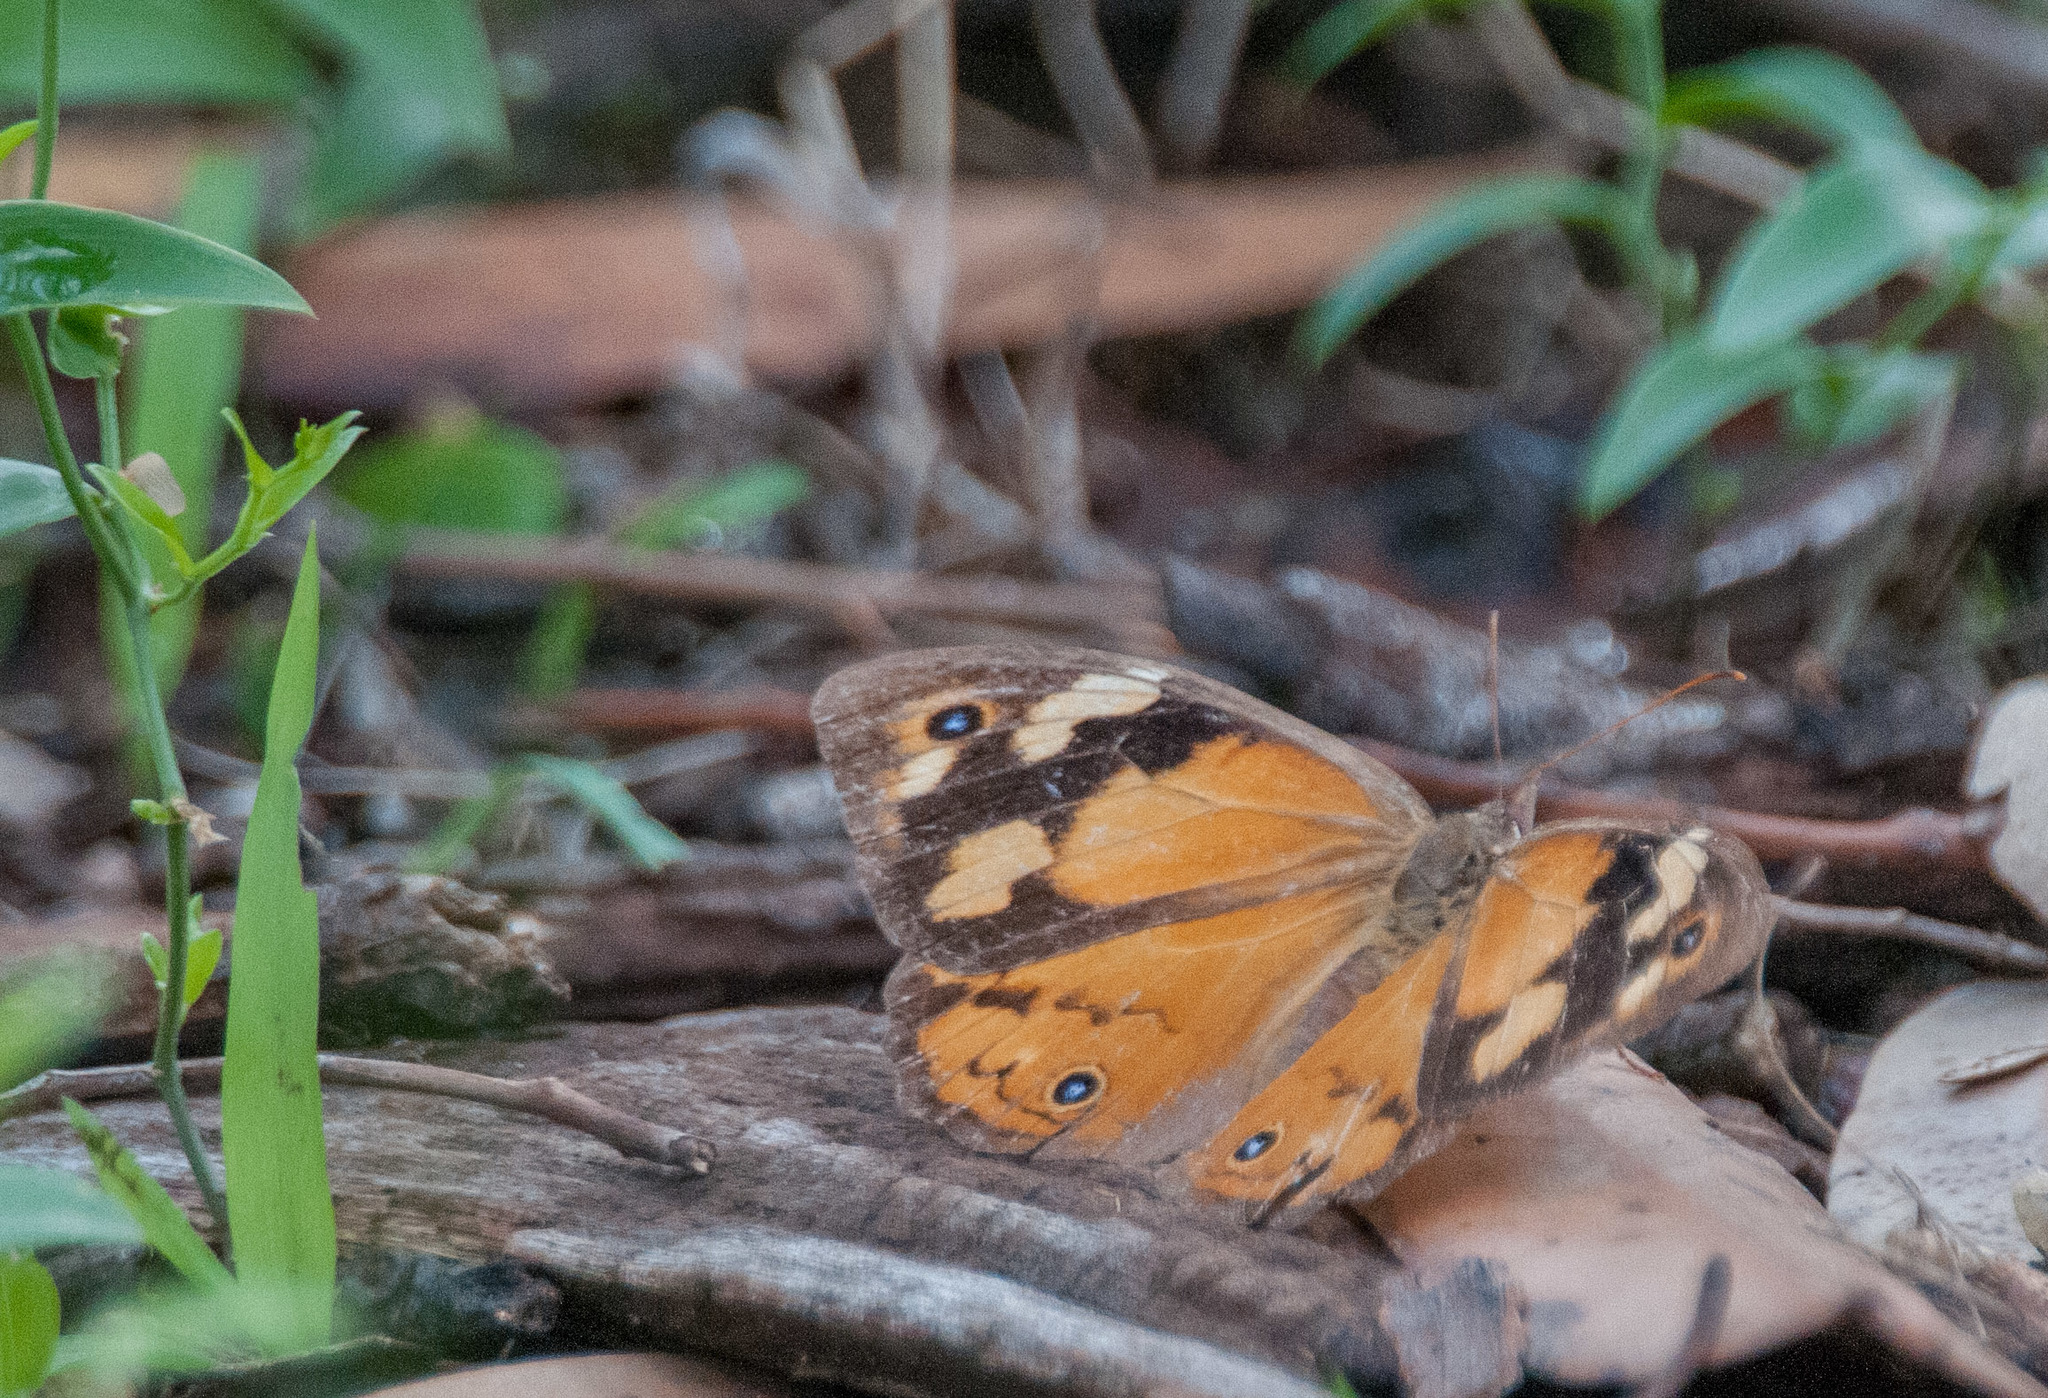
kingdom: Animalia
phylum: Arthropoda
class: Insecta
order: Lepidoptera
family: Nymphalidae
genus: Heteronympha
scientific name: Heteronympha merope
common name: Common brown
